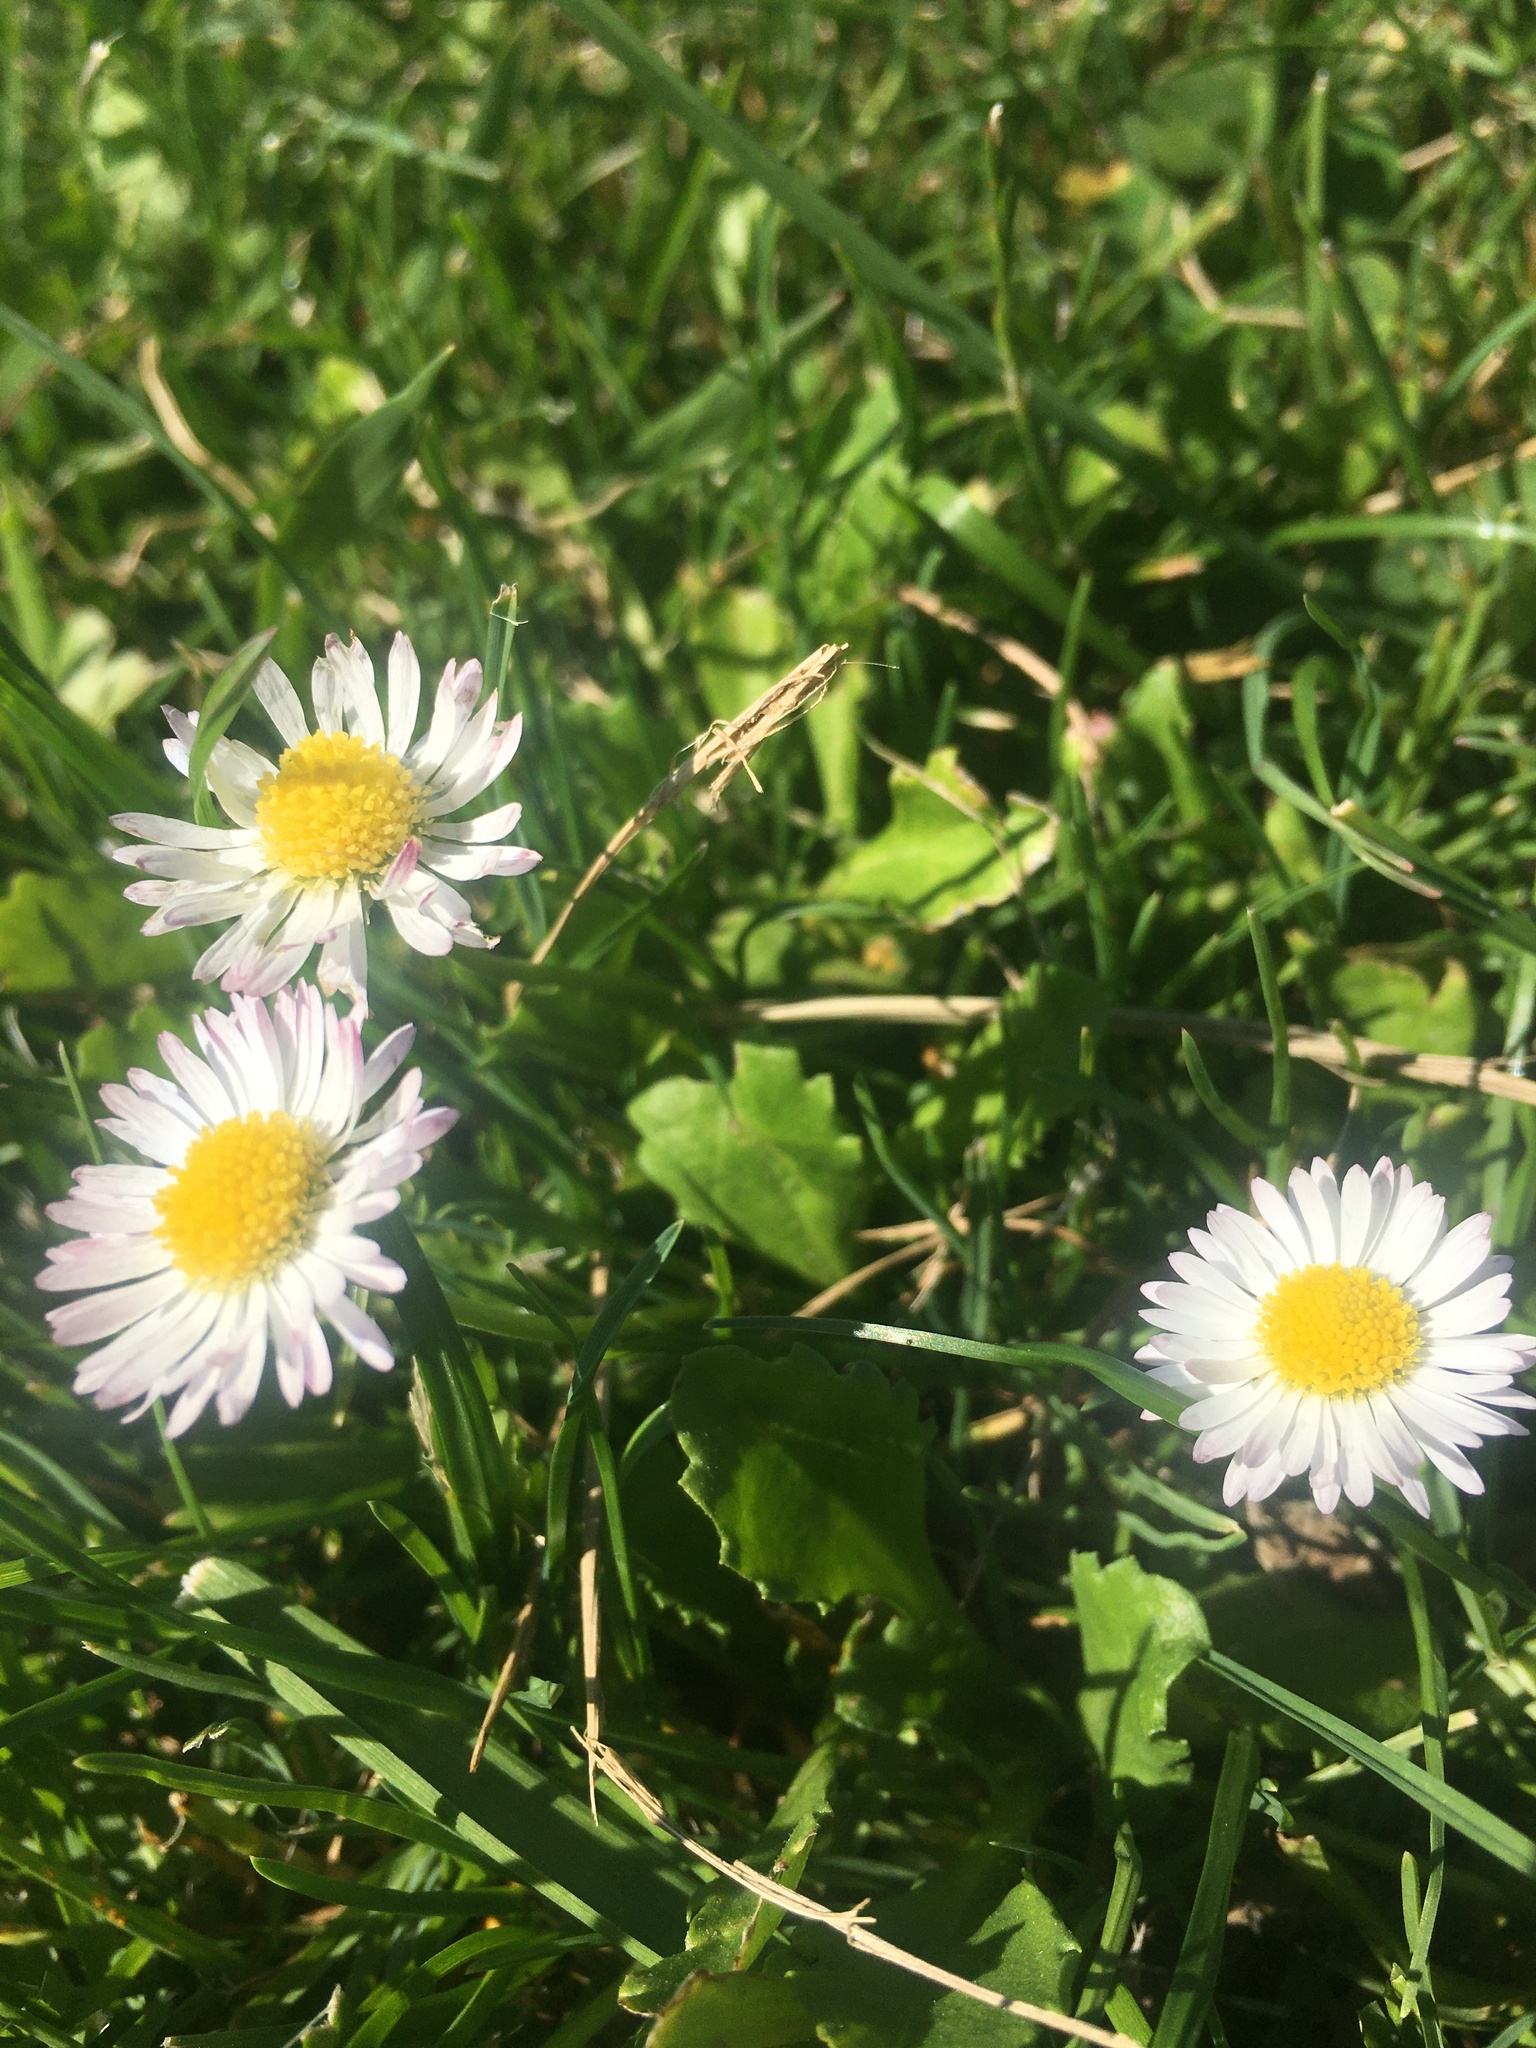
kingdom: Plantae
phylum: Tracheophyta
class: Magnoliopsida
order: Asterales
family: Asteraceae
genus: Bellis
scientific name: Bellis perennis
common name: Lawndaisy
